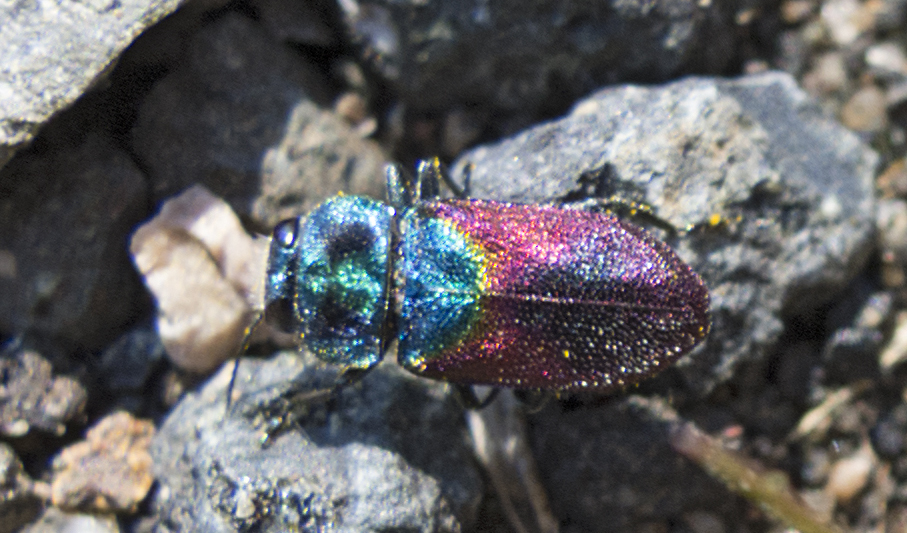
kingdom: Animalia
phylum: Arthropoda
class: Insecta
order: Coleoptera
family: Buprestidae
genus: Anthaxia
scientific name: Anthaxia salicis
